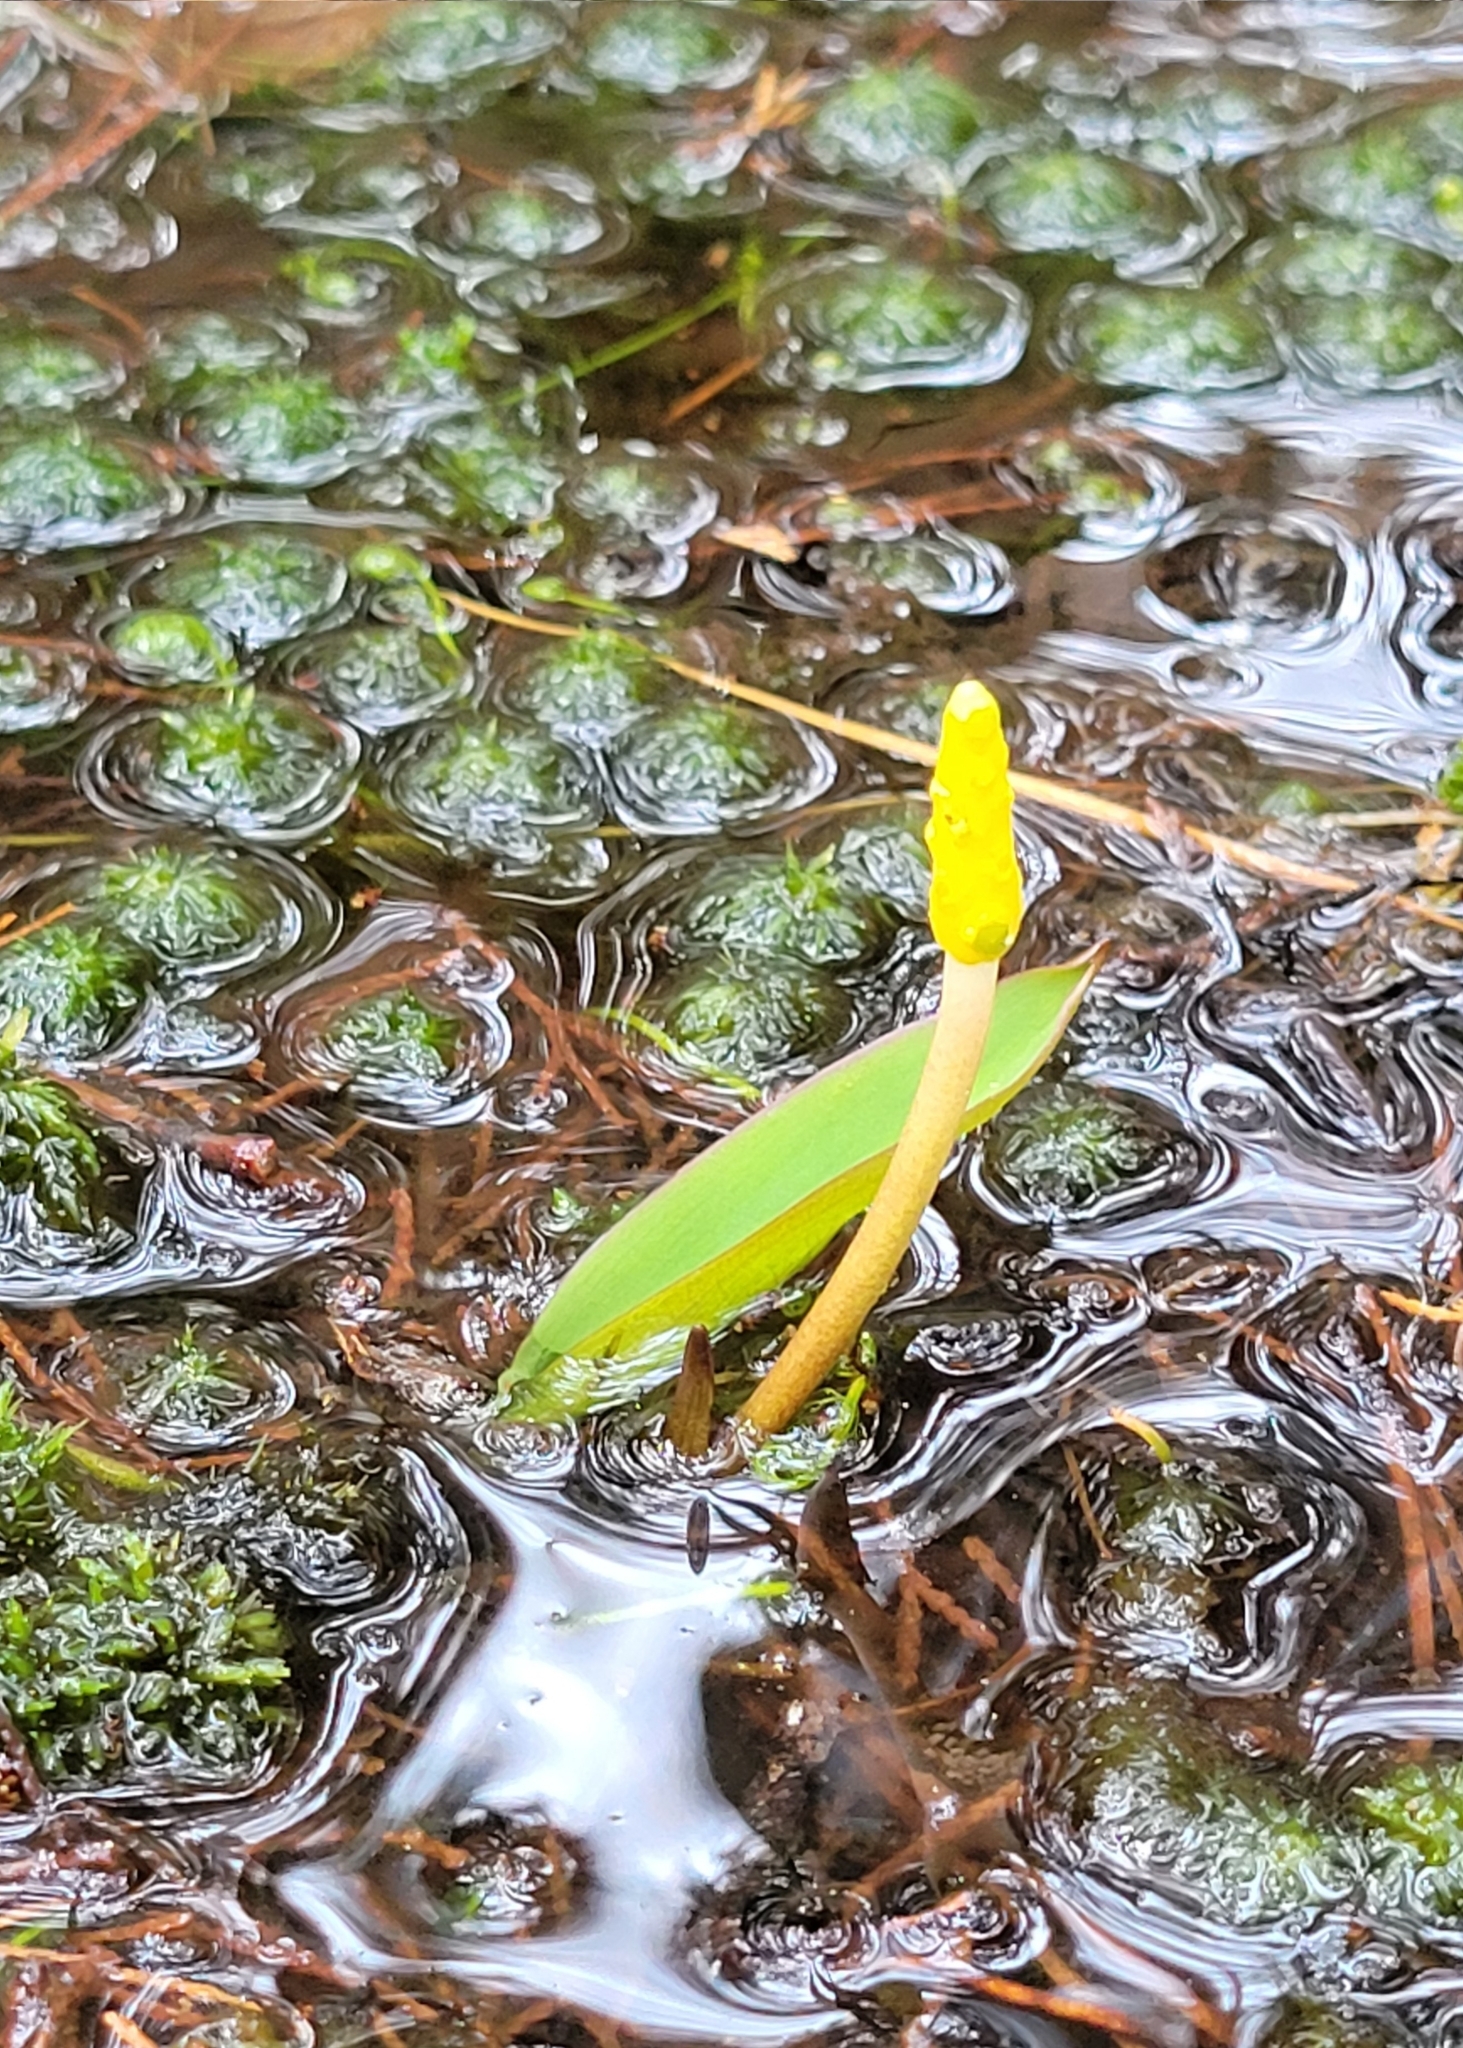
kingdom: Plantae
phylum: Tracheophyta
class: Liliopsida
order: Alismatales
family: Araceae
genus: Orontium
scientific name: Orontium aquaticum
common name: Golden-club
